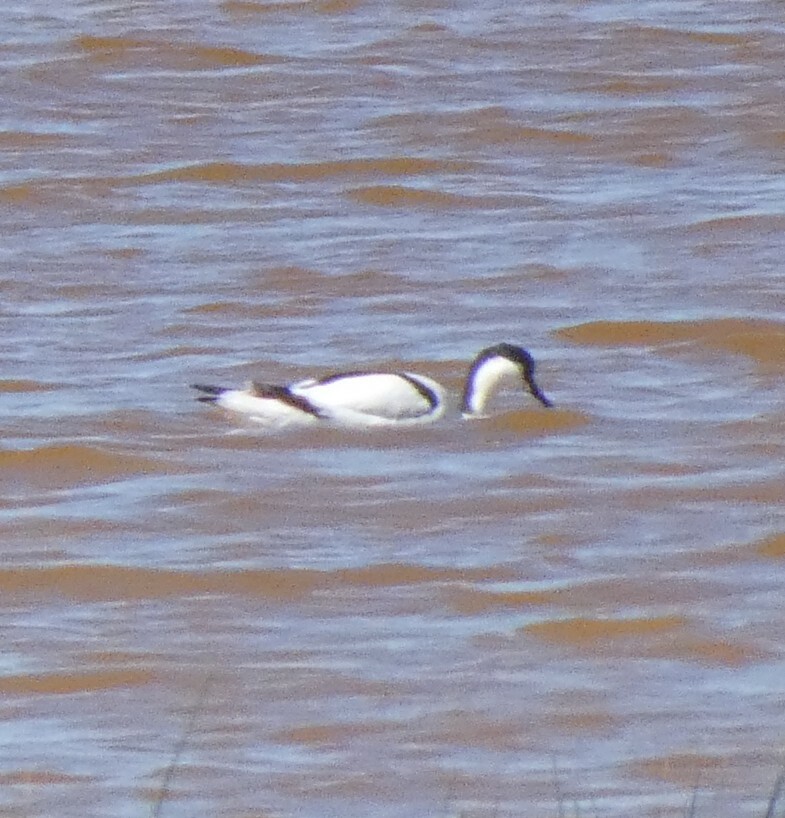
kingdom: Animalia
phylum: Chordata
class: Aves
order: Charadriiformes
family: Recurvirostridae
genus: Recurvirostra
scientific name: Recurvirostra avosetta
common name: Pied avocet
